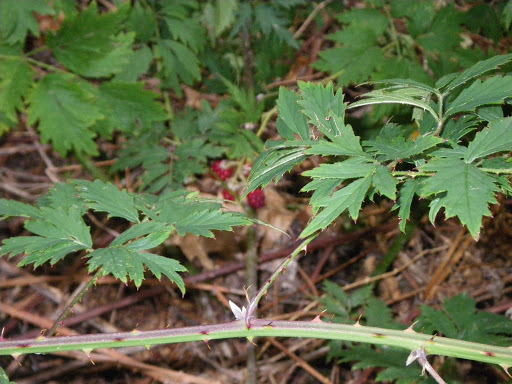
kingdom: Plantae
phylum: Tracheophyta
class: Magnoliopsida
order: Rosales
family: Rosaceae
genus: Rubus
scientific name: Rubus laciniatus
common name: Evergreen blackberry
